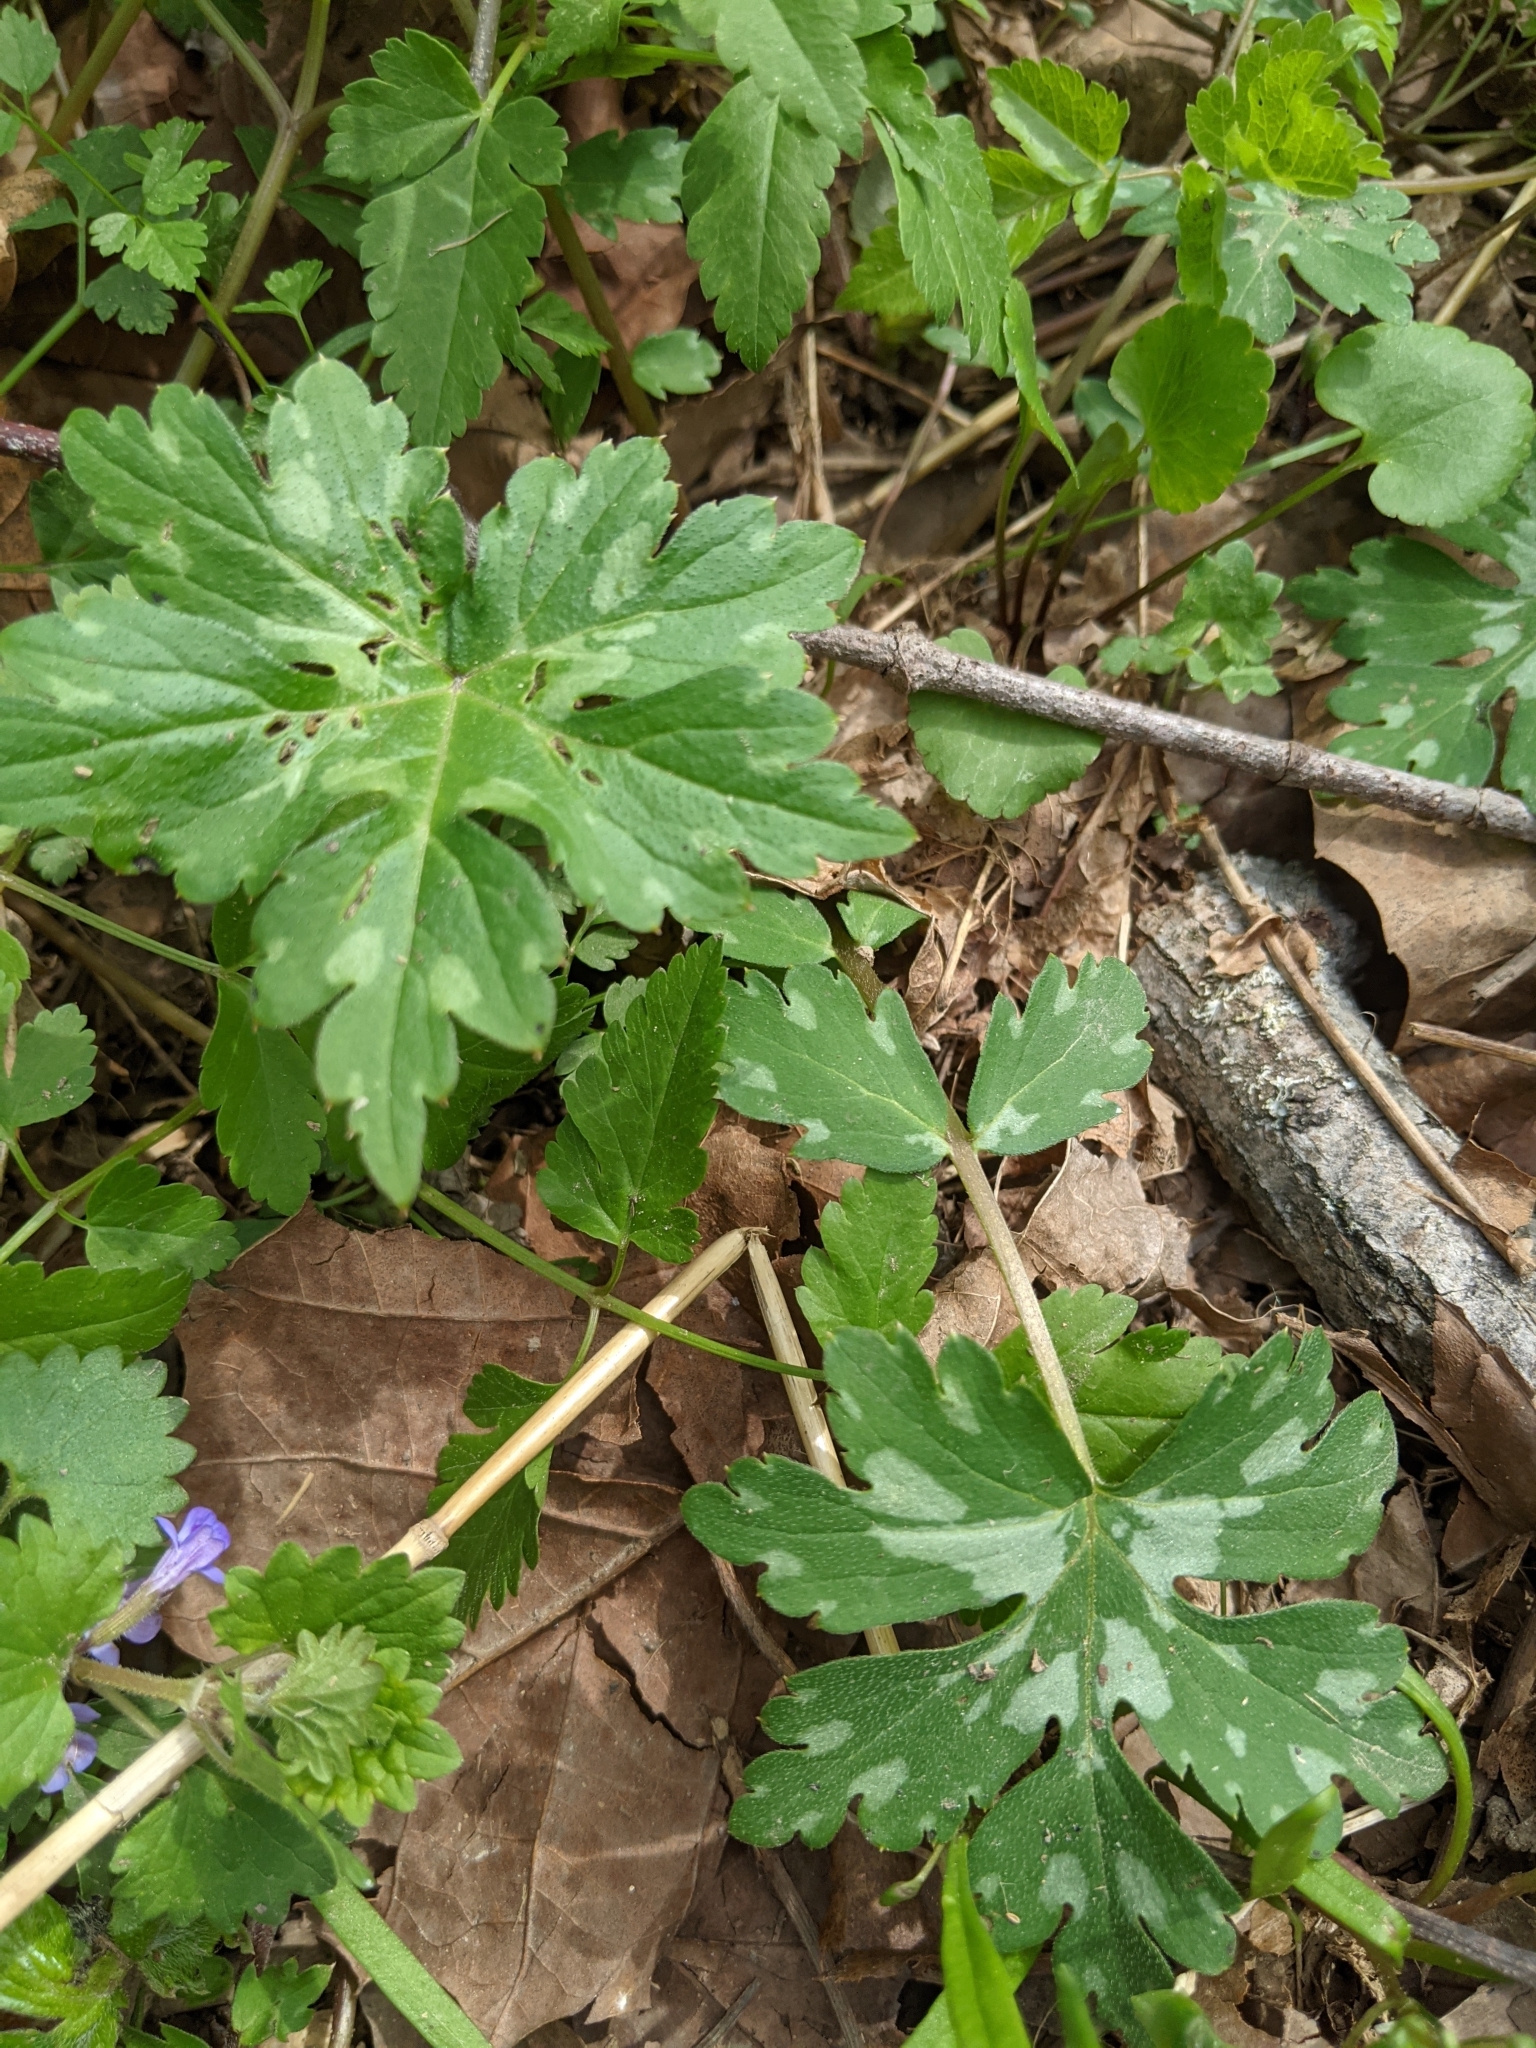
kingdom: Plantae
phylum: Tracheophyta
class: Magnoliopsida
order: Boraginales
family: Hydrophyllaceae
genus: Hydrophyllum
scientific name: Hydrophyllum canadense
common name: Canada waterleaf
